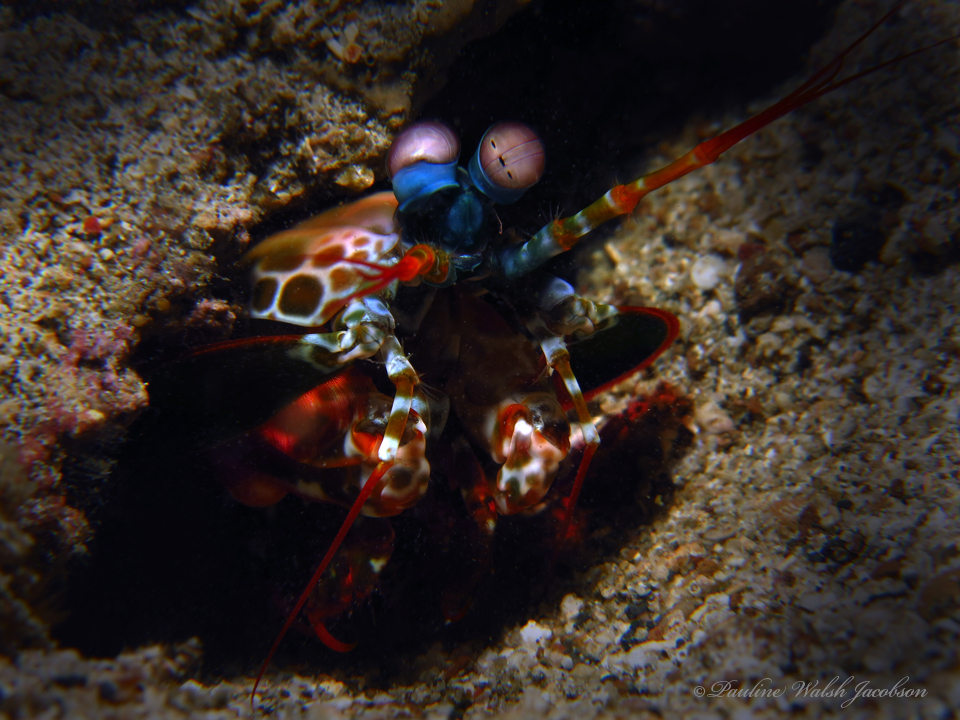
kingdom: Animalia
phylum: Arthropoda
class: Malacostraca
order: Stomatopoda
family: Odontodactylidae
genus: Odontodactylus
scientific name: Odontodactylus scyllarus
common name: Peacock mantis shrimp
